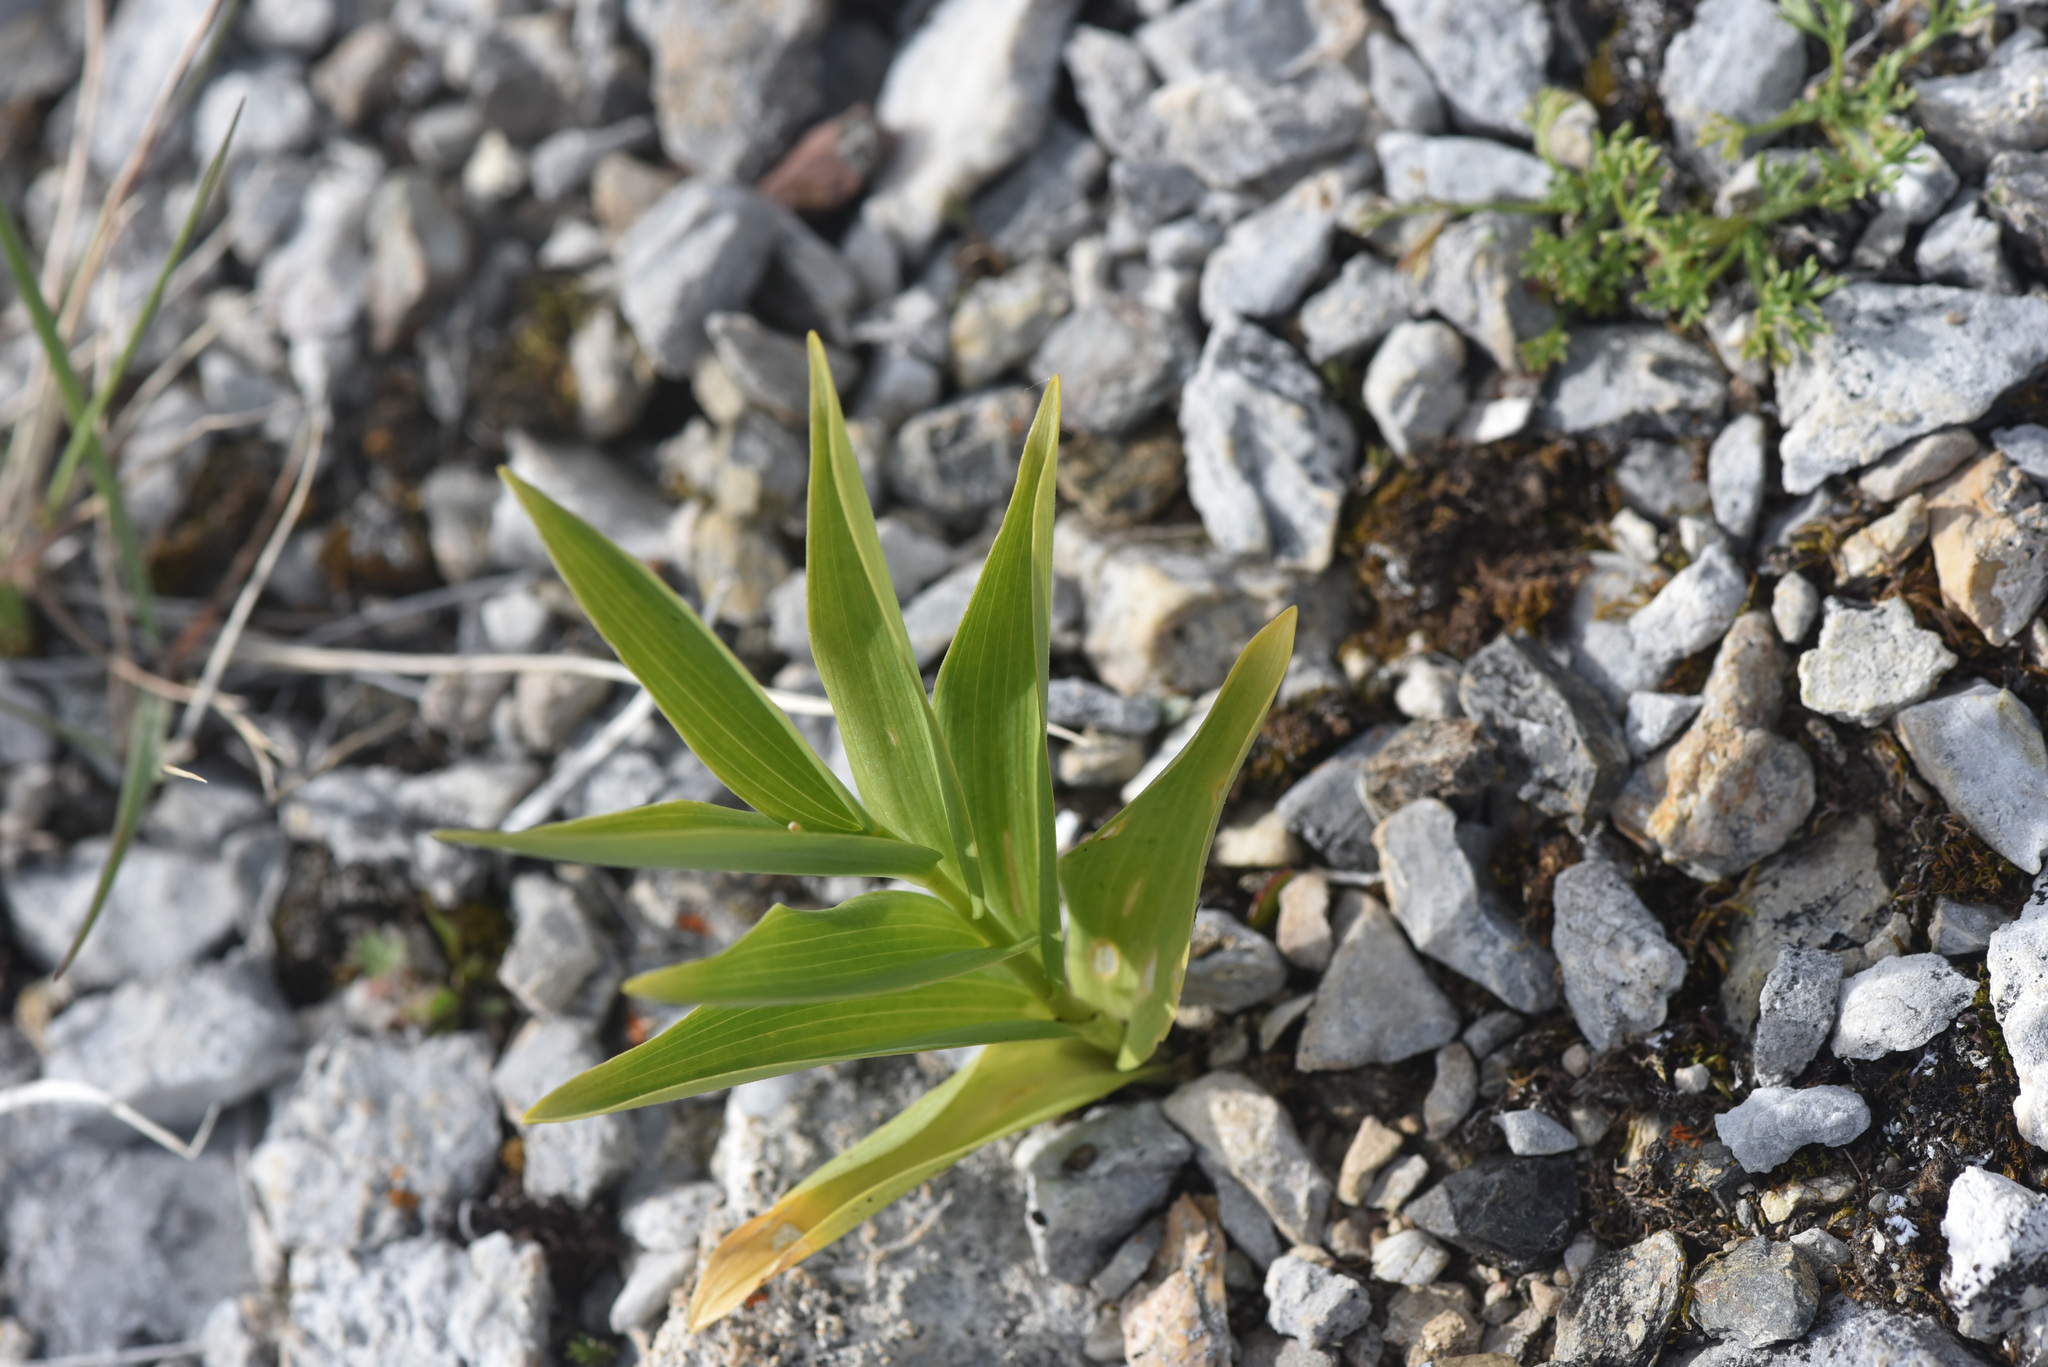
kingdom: Plantae
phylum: Tracheophyta
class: Liliopsida
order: Asparagales
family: Asparagaceae
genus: Maianthemum
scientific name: Maianthemum stellatum
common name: Little false solomon's seal
